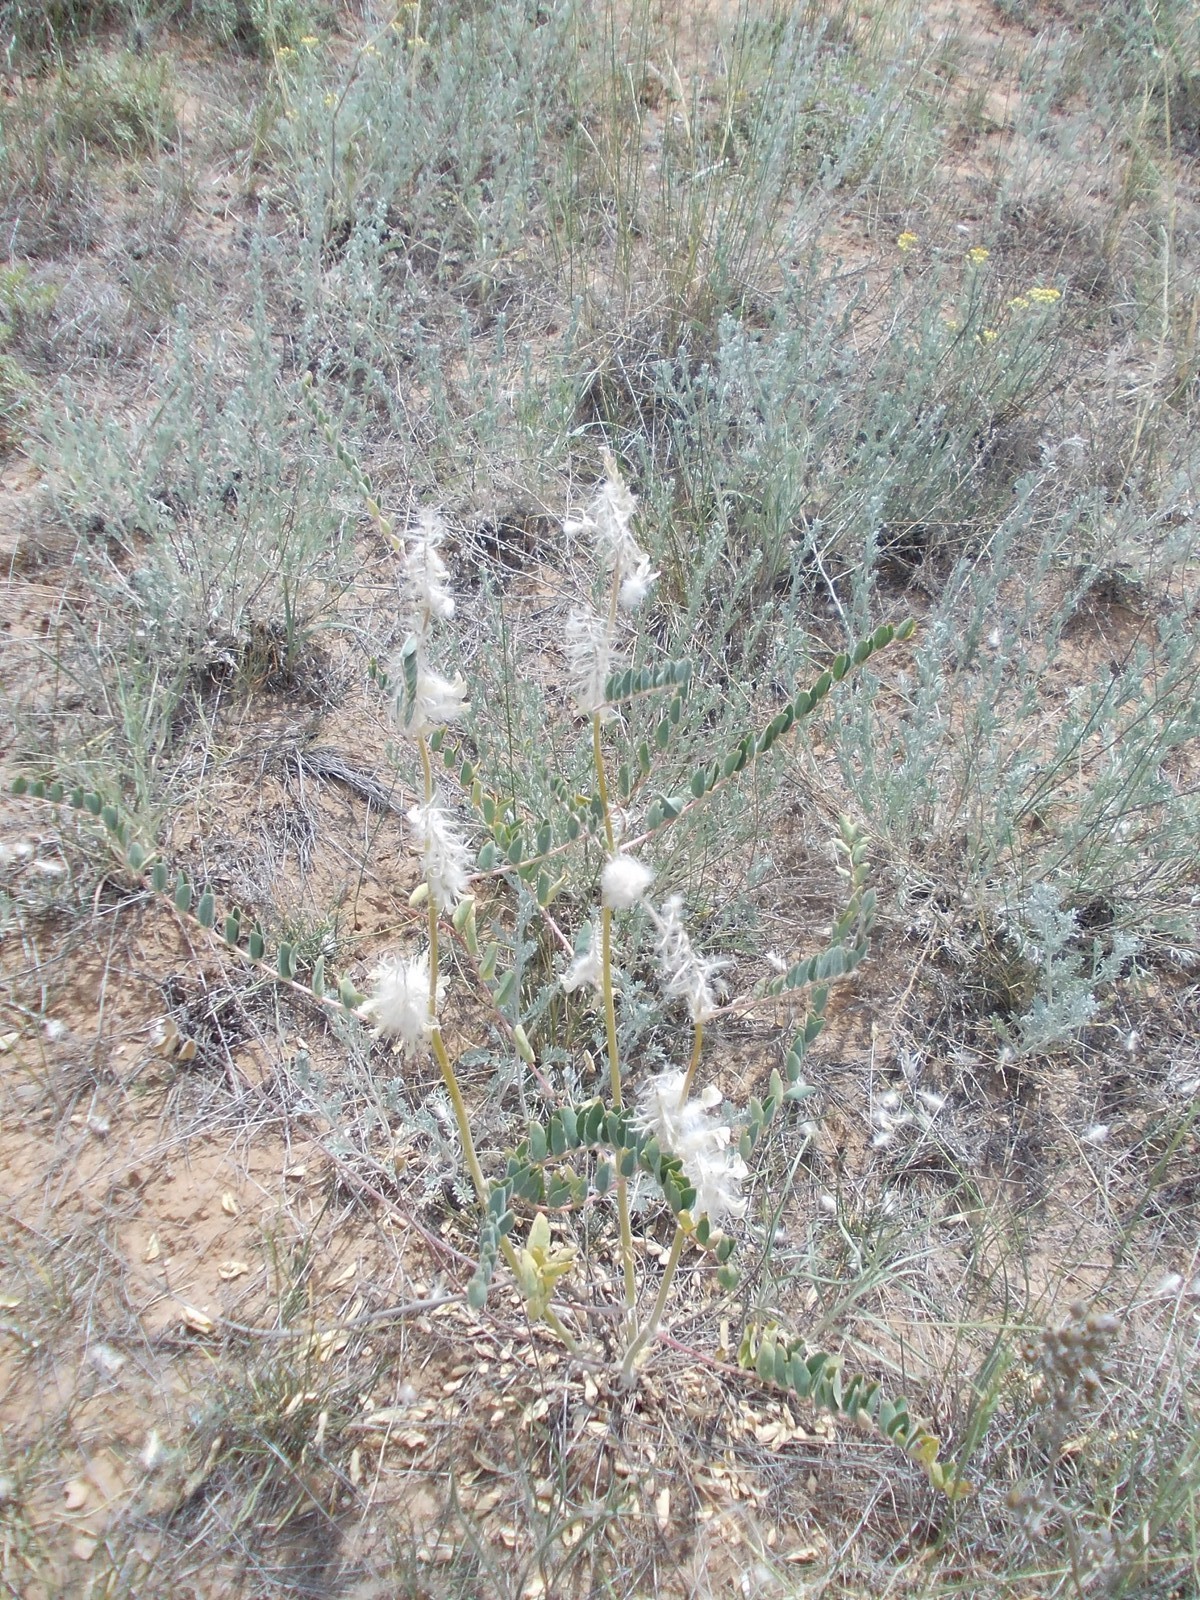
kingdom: Plantae
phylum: Tracheophyta
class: Magnoliopsida
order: Fabales
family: Fabaceae
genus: Astragalus
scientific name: Astragalus vulpinus
